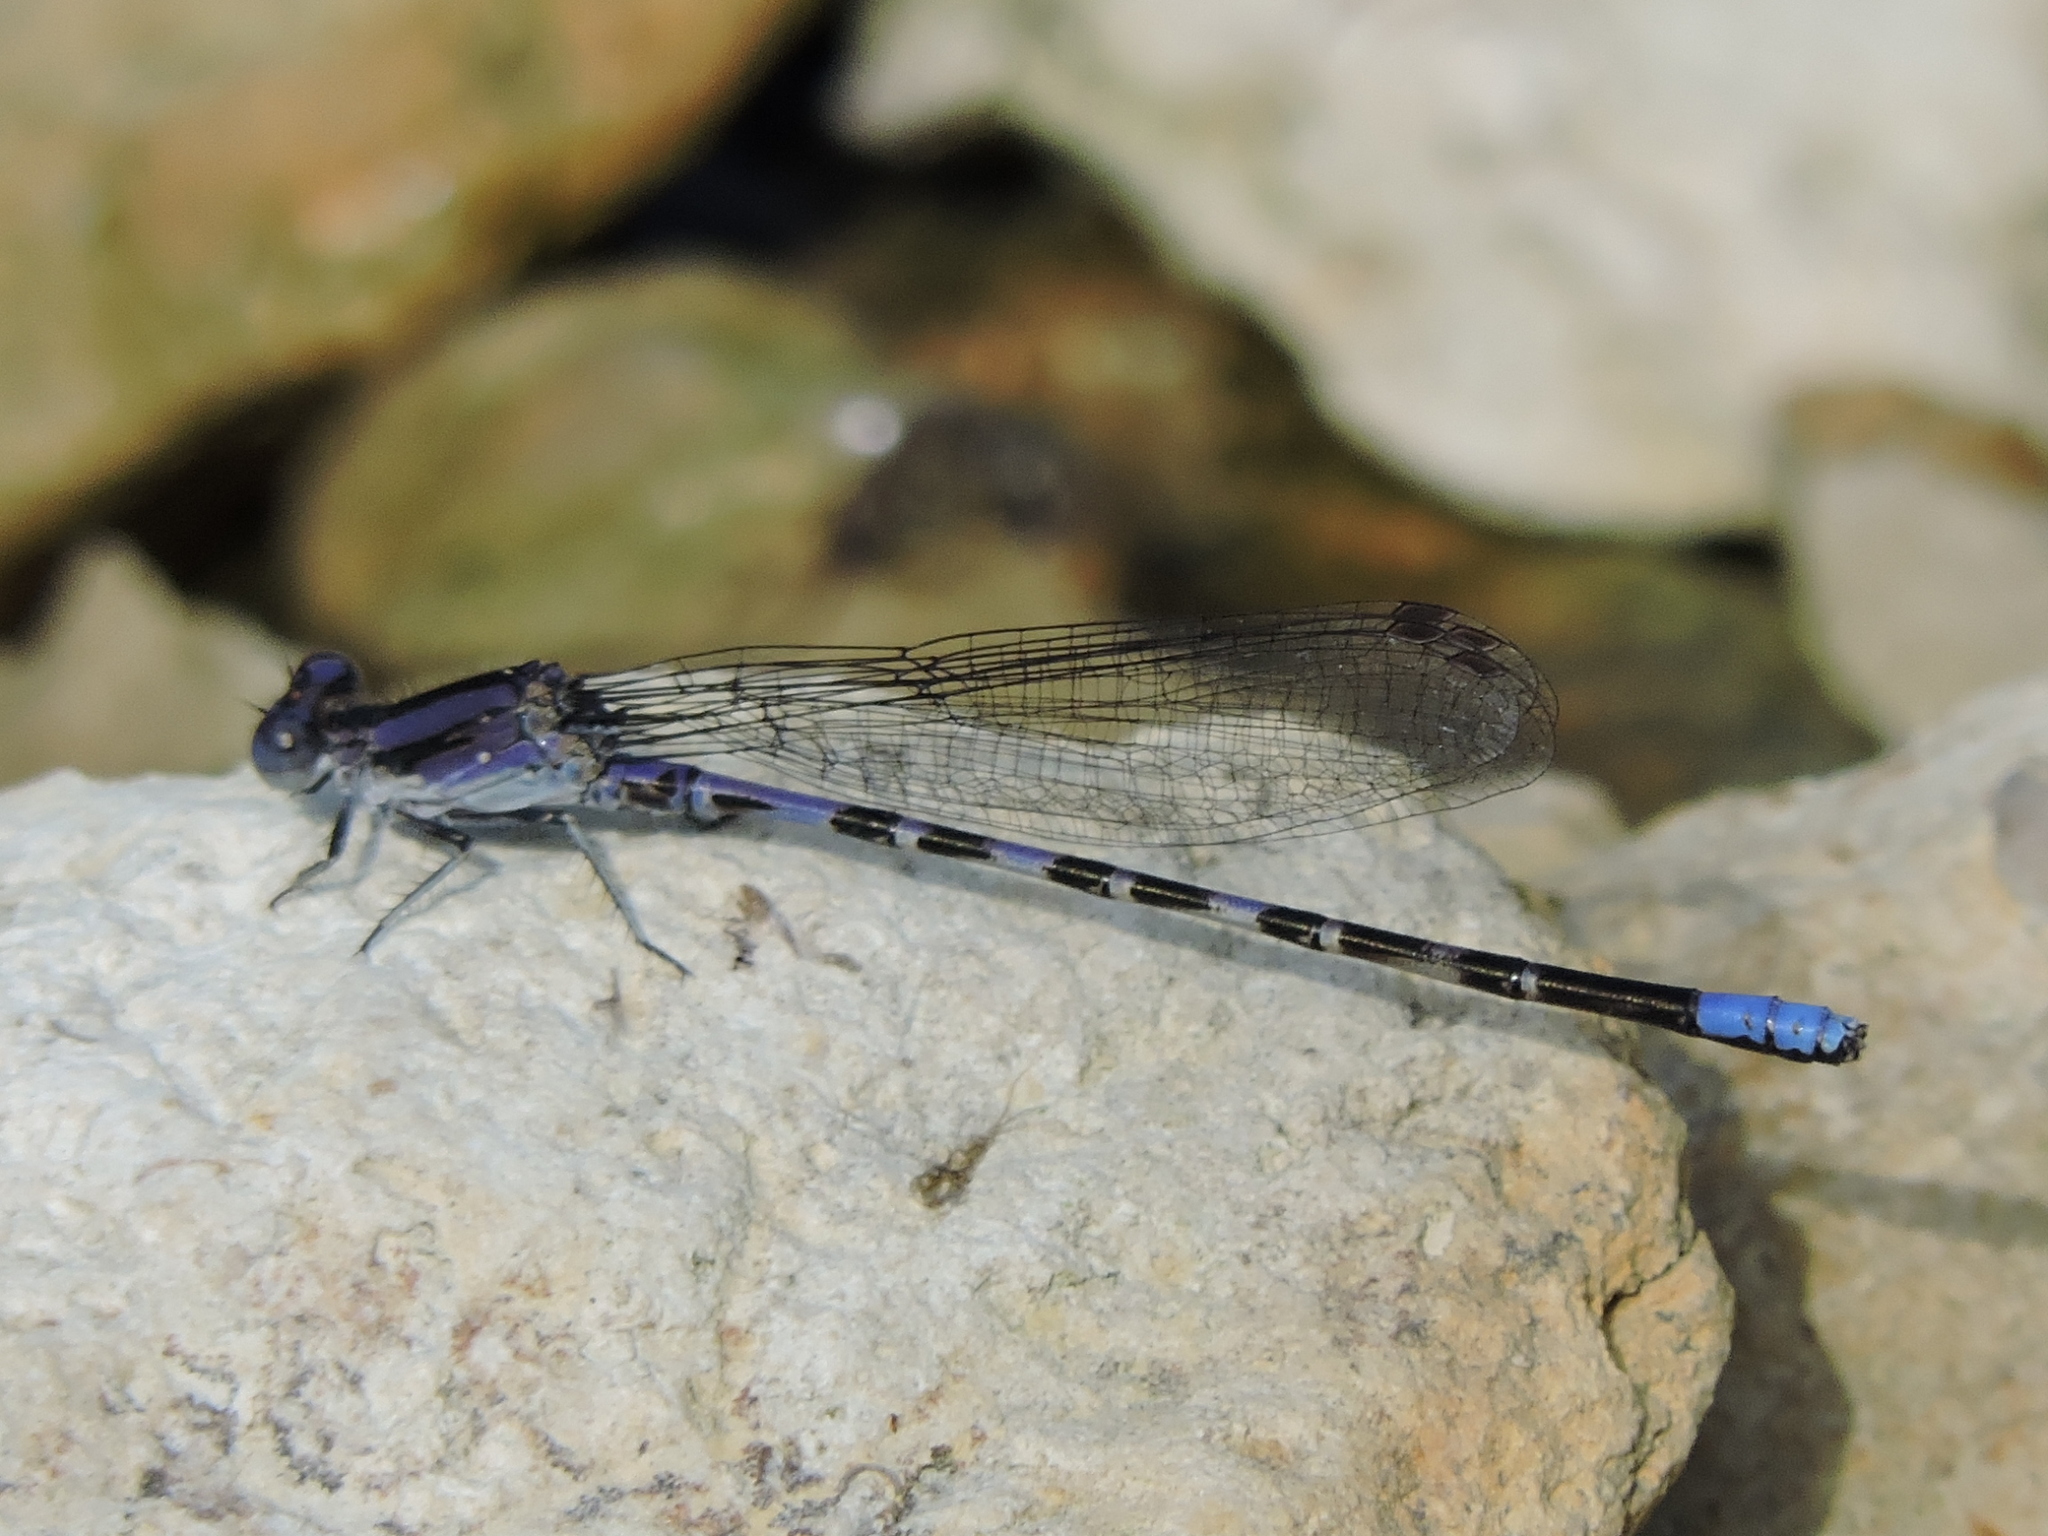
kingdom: Animalia
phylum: Arthropoda
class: Insecta
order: Odonata
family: Coenagrionidae
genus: Argia
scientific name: Argia immunda
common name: Kiowa dancer
